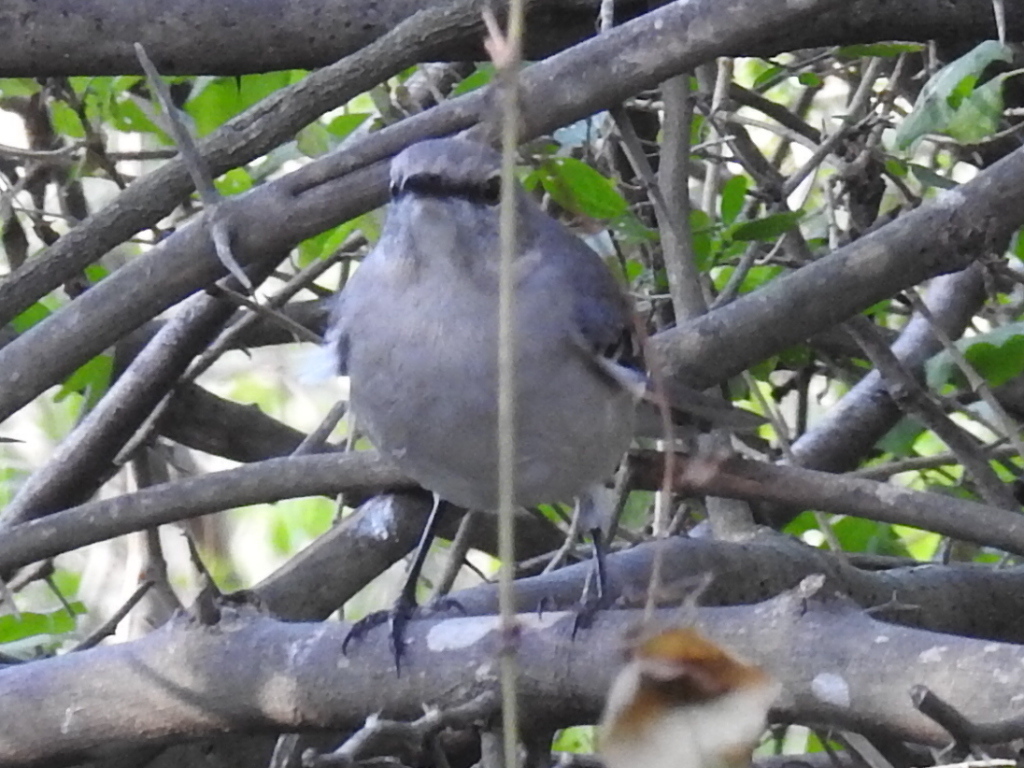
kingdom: Animalia
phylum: Chordata
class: Aves
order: Passeriformes
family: Mimidae
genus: Mimus
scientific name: Mimus polyglottos
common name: Northern mockingbird
